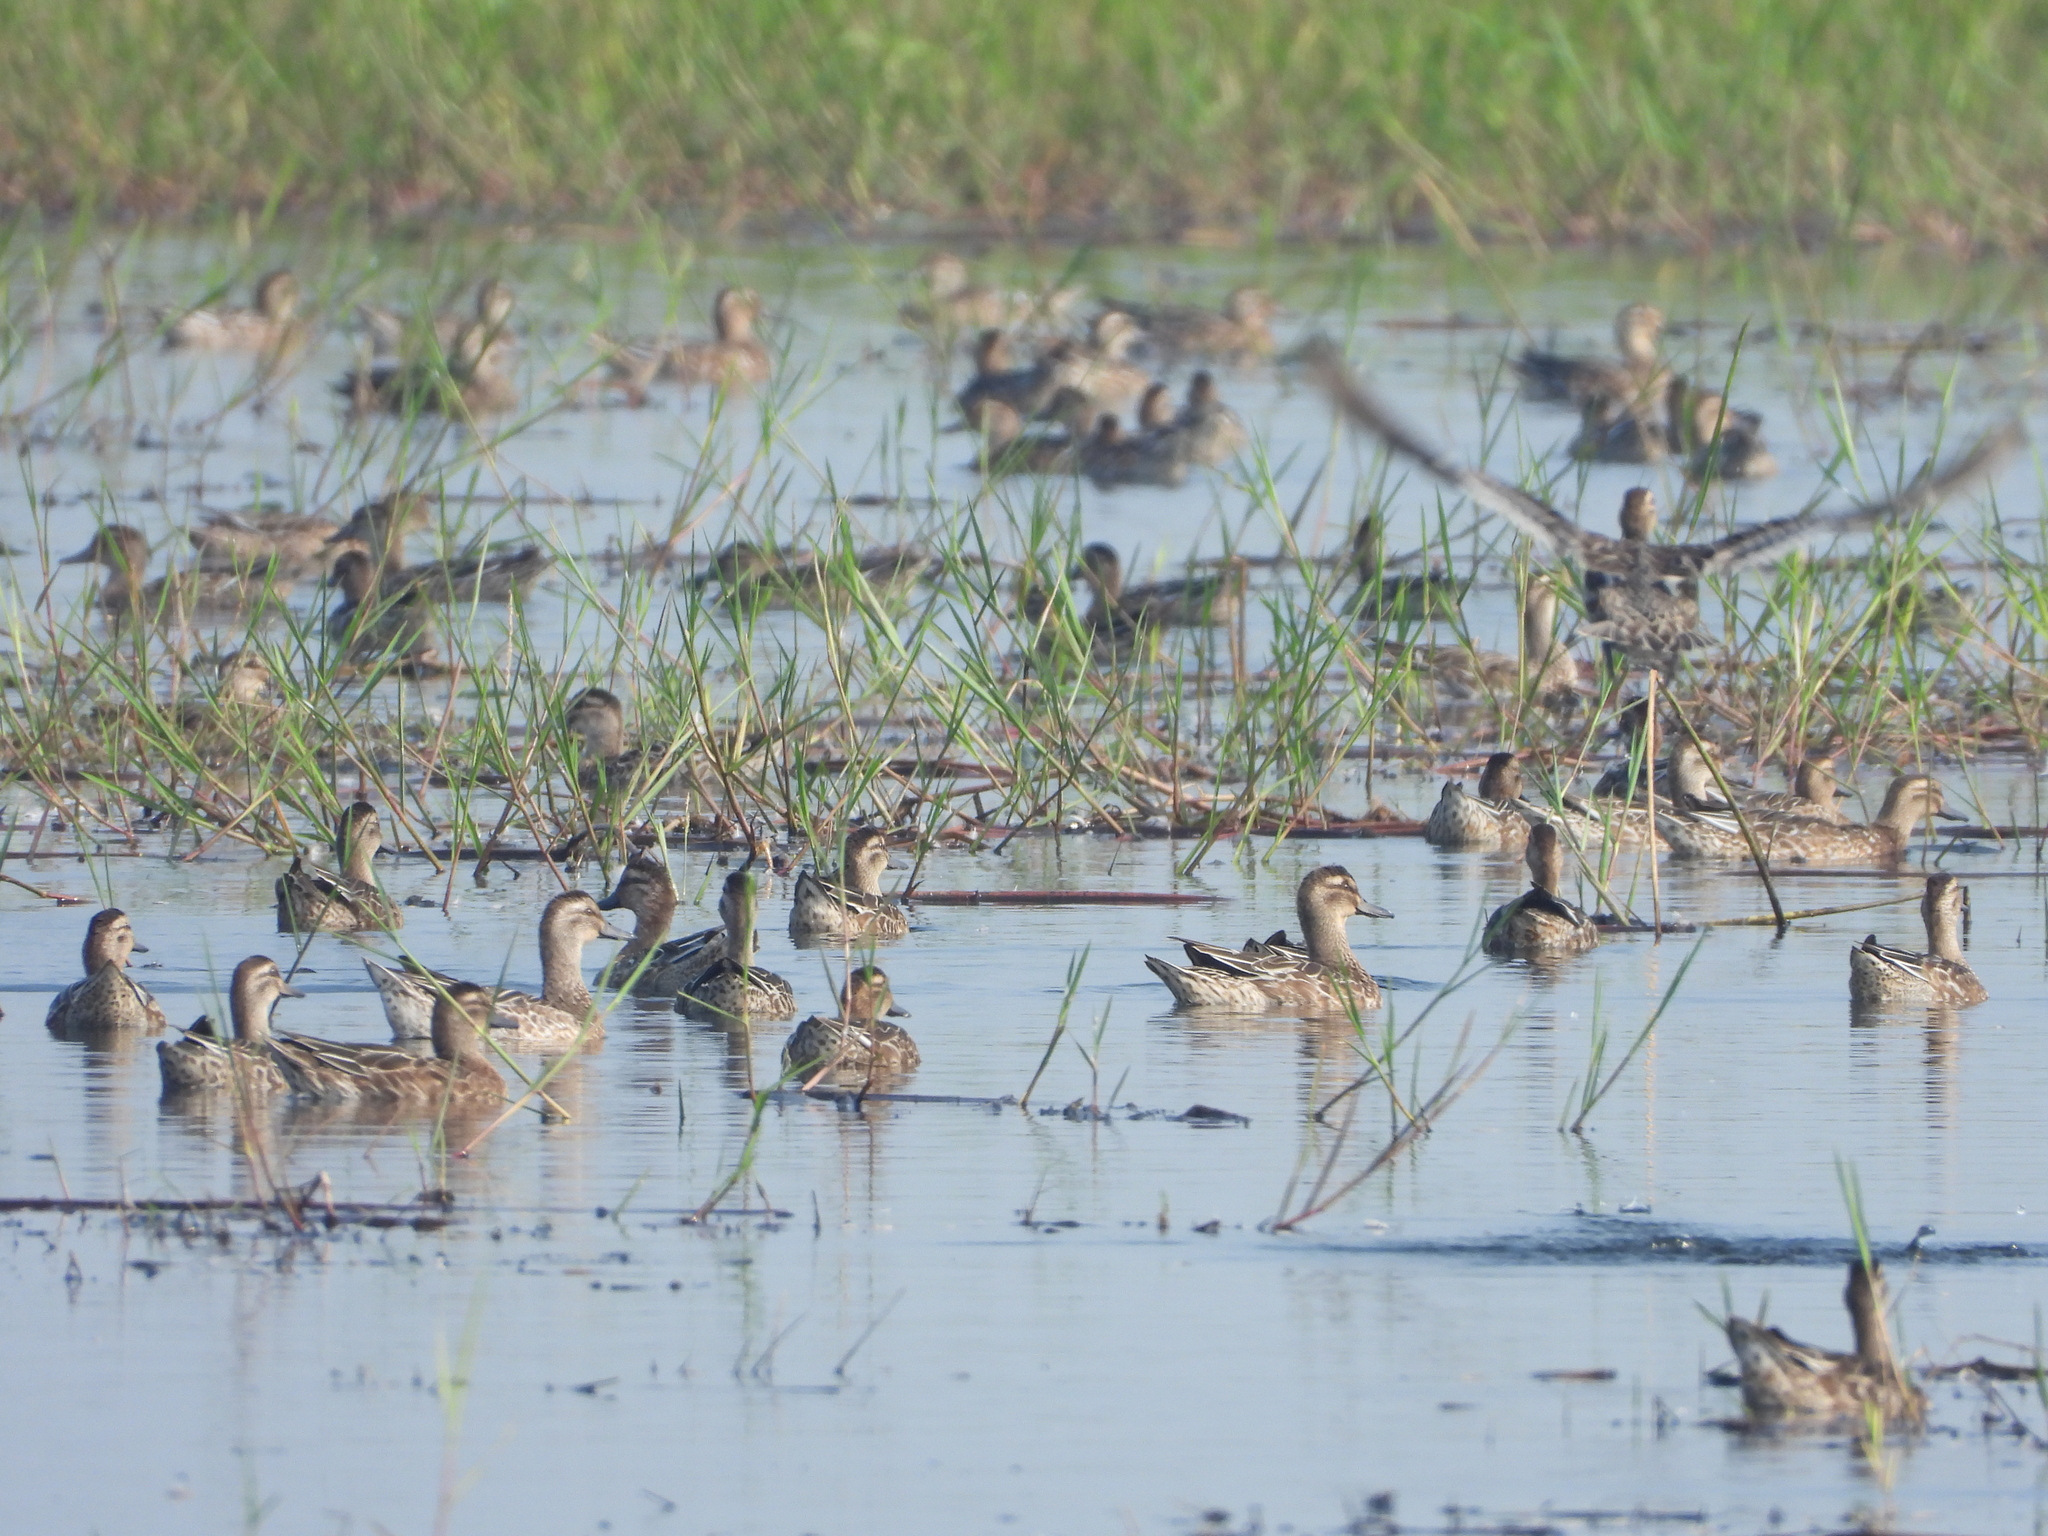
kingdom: Animalia
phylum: Chordata
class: Aves
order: Anseriformes
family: Anatidae
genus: Spatula
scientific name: Spatula querquedula
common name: Garganey
